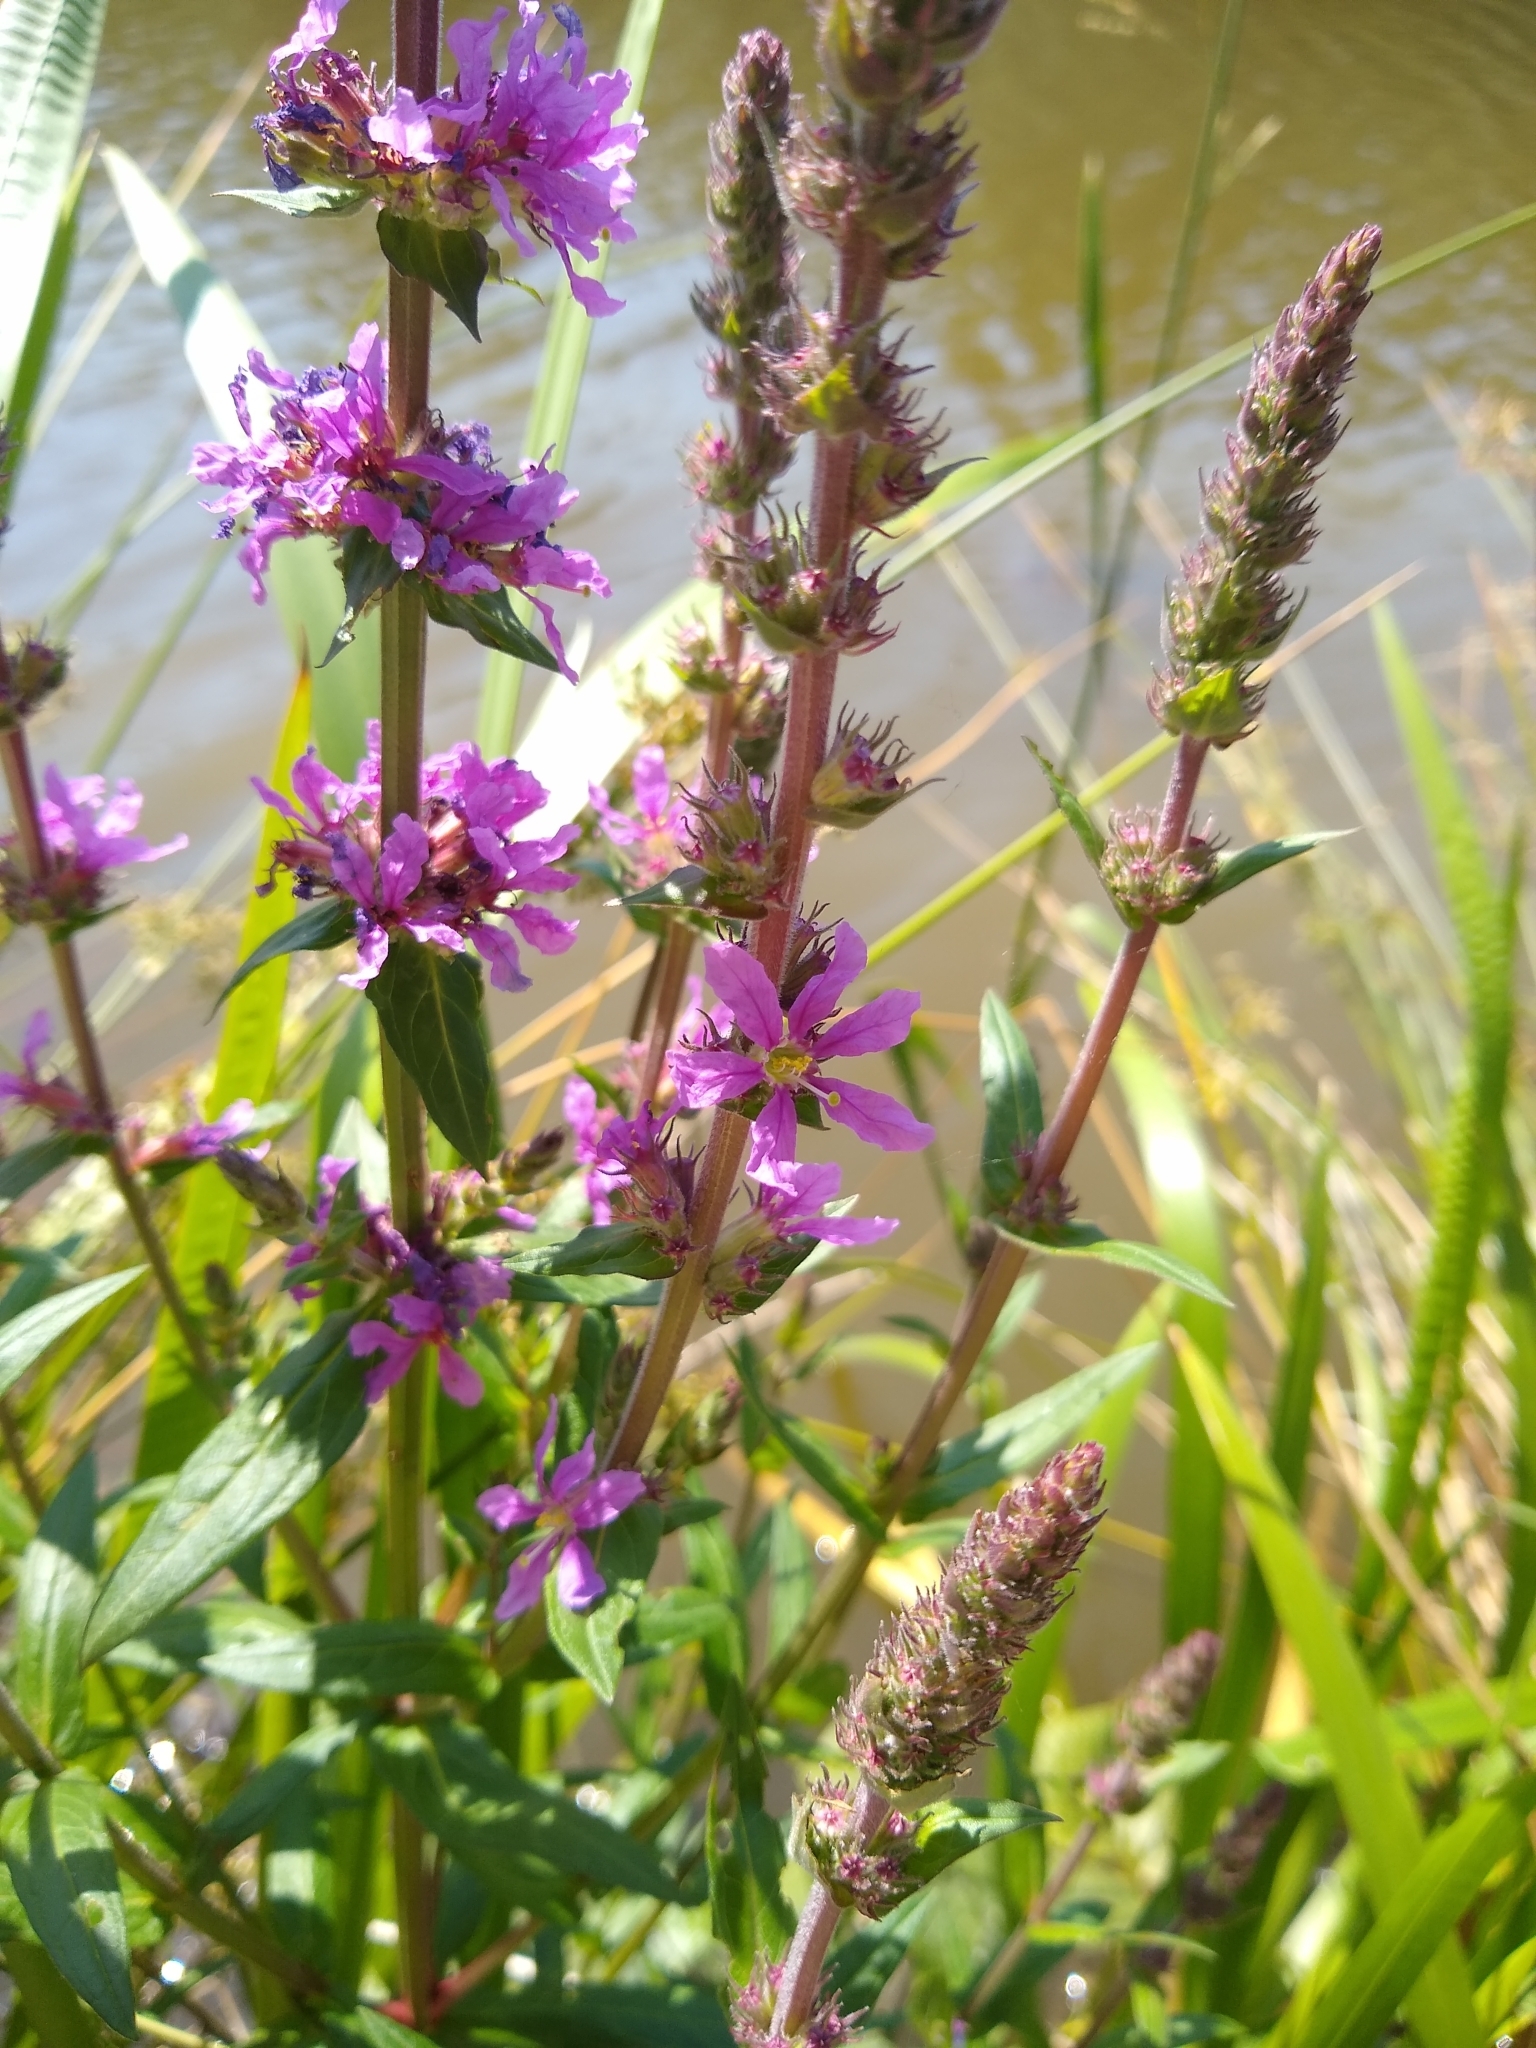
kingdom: Plantae
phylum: Tracheophyta
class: Magnoliopsida
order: Myrtales
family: Lythraceae
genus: Lythrum
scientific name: Lythrum salicaria
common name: Purple loosestrife
